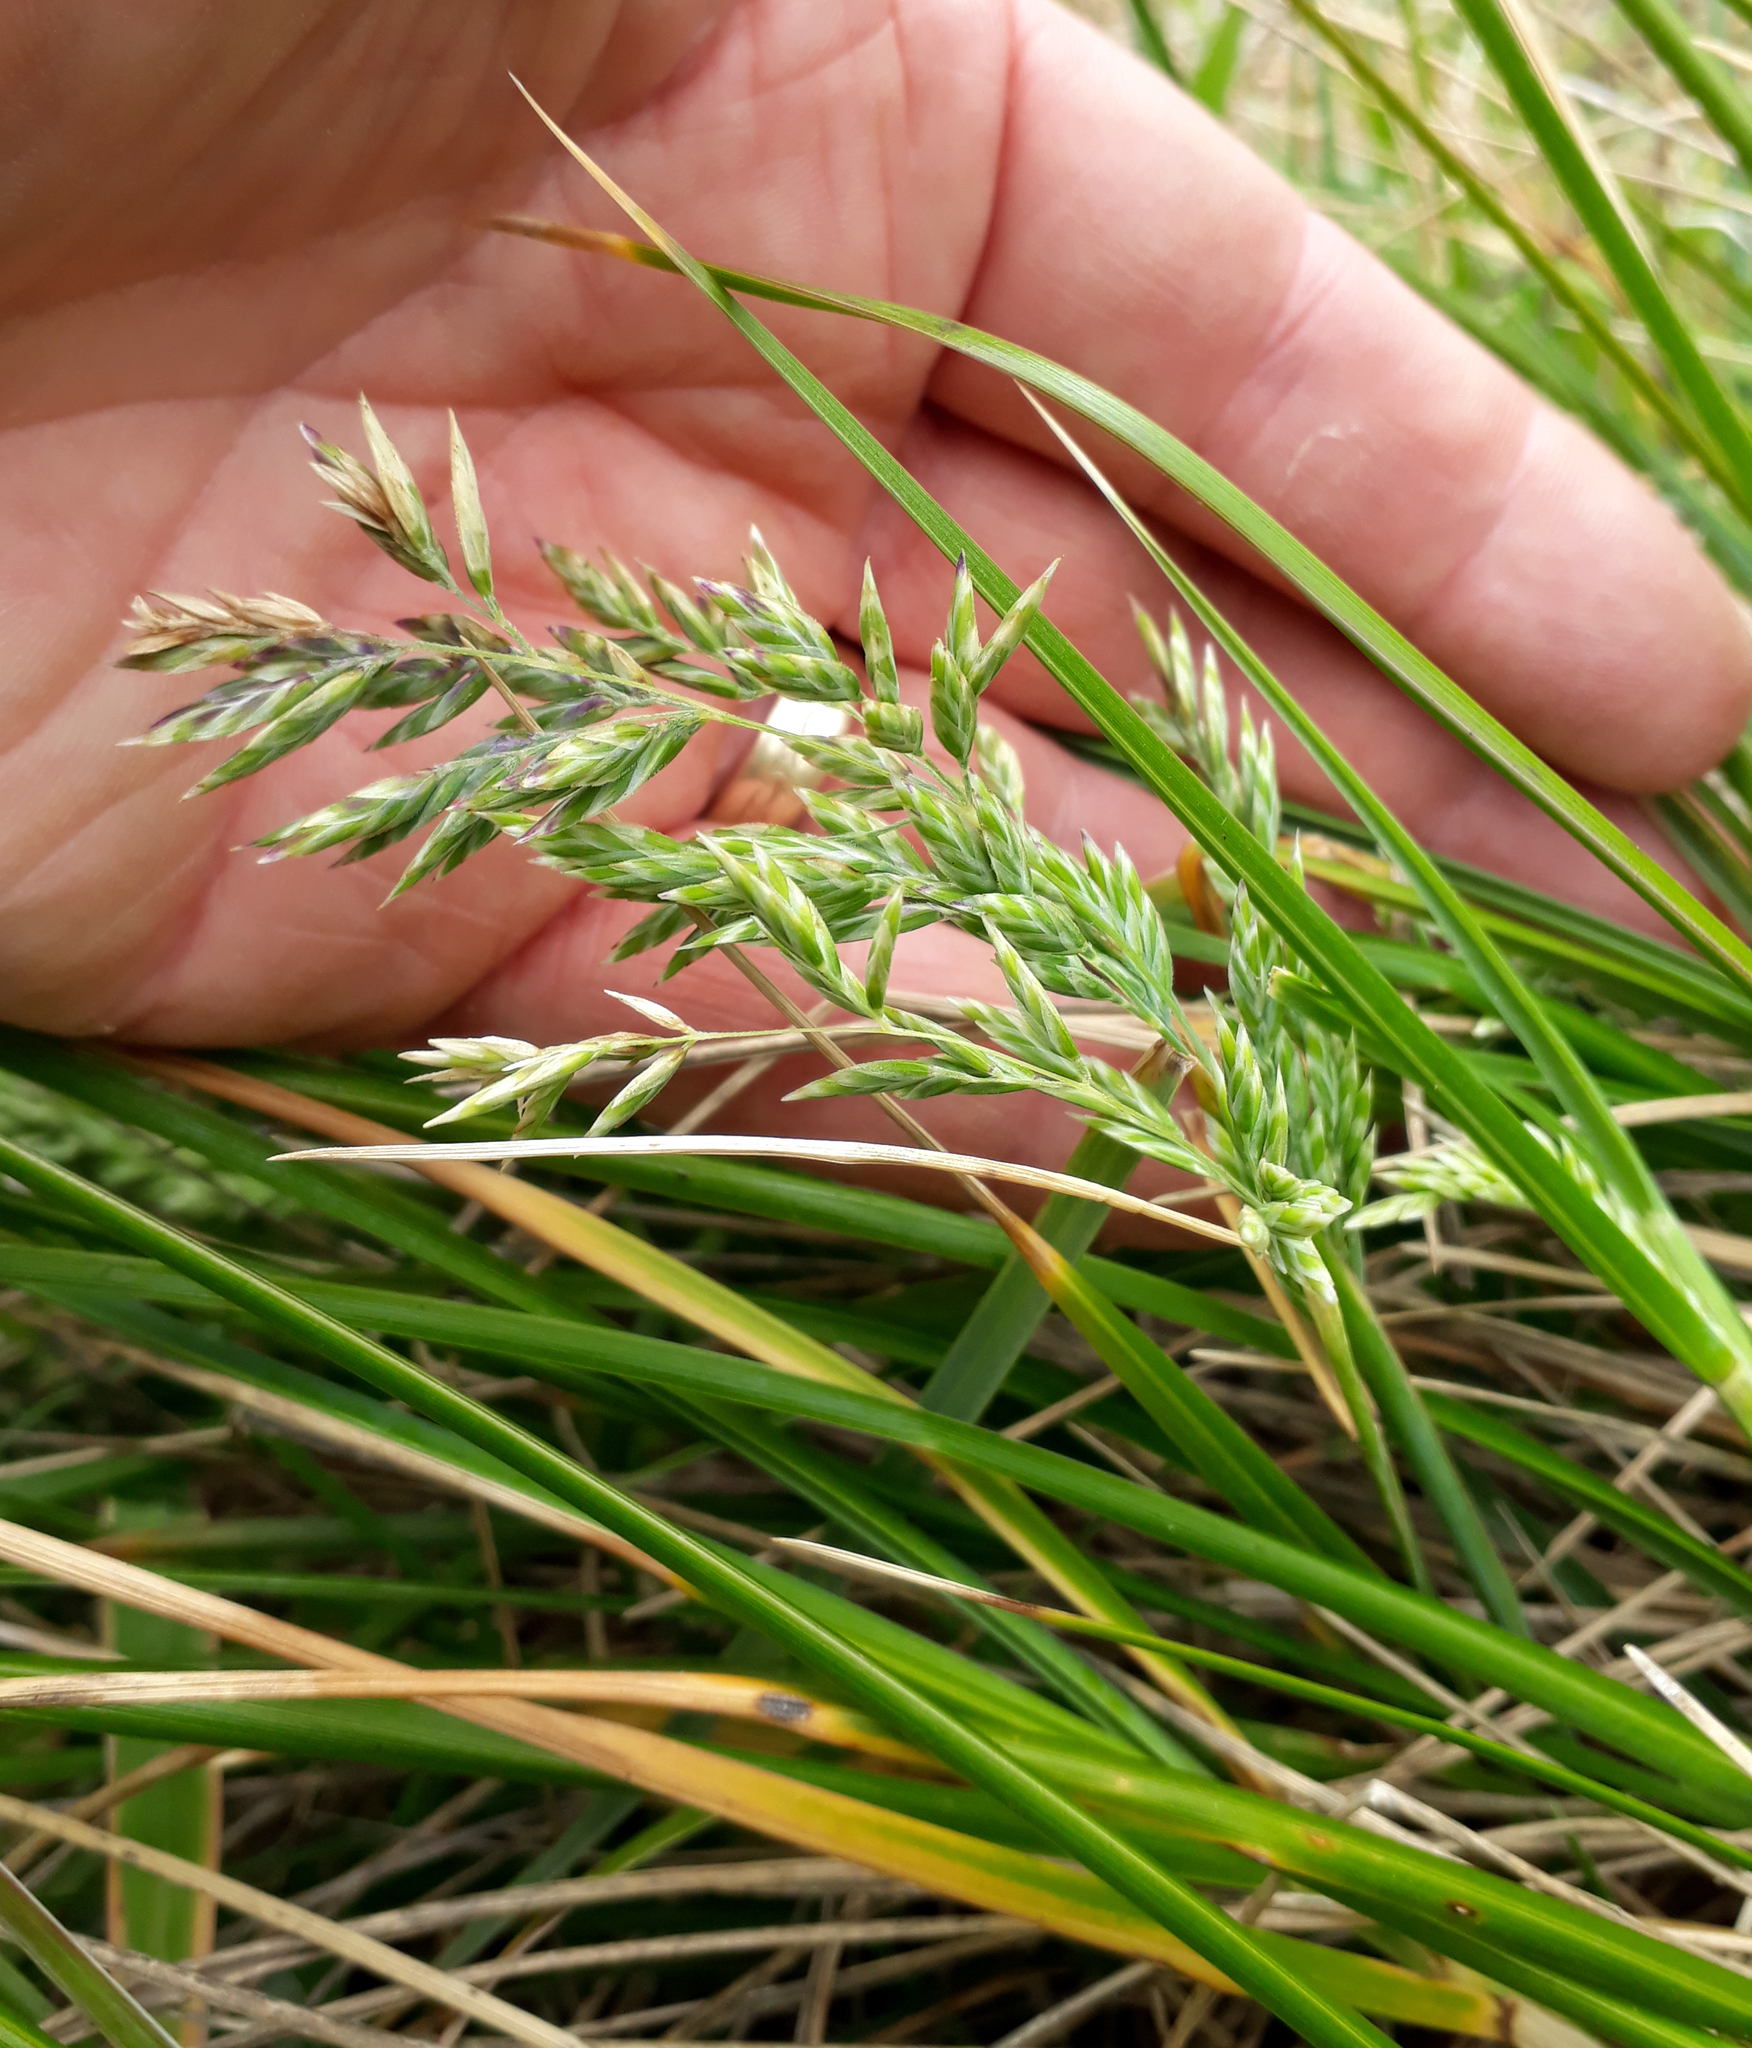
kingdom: Plantae
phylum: Tracheophyta
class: Liliopsida
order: Poales
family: Poaceae
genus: Poa
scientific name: Poa chathamica
